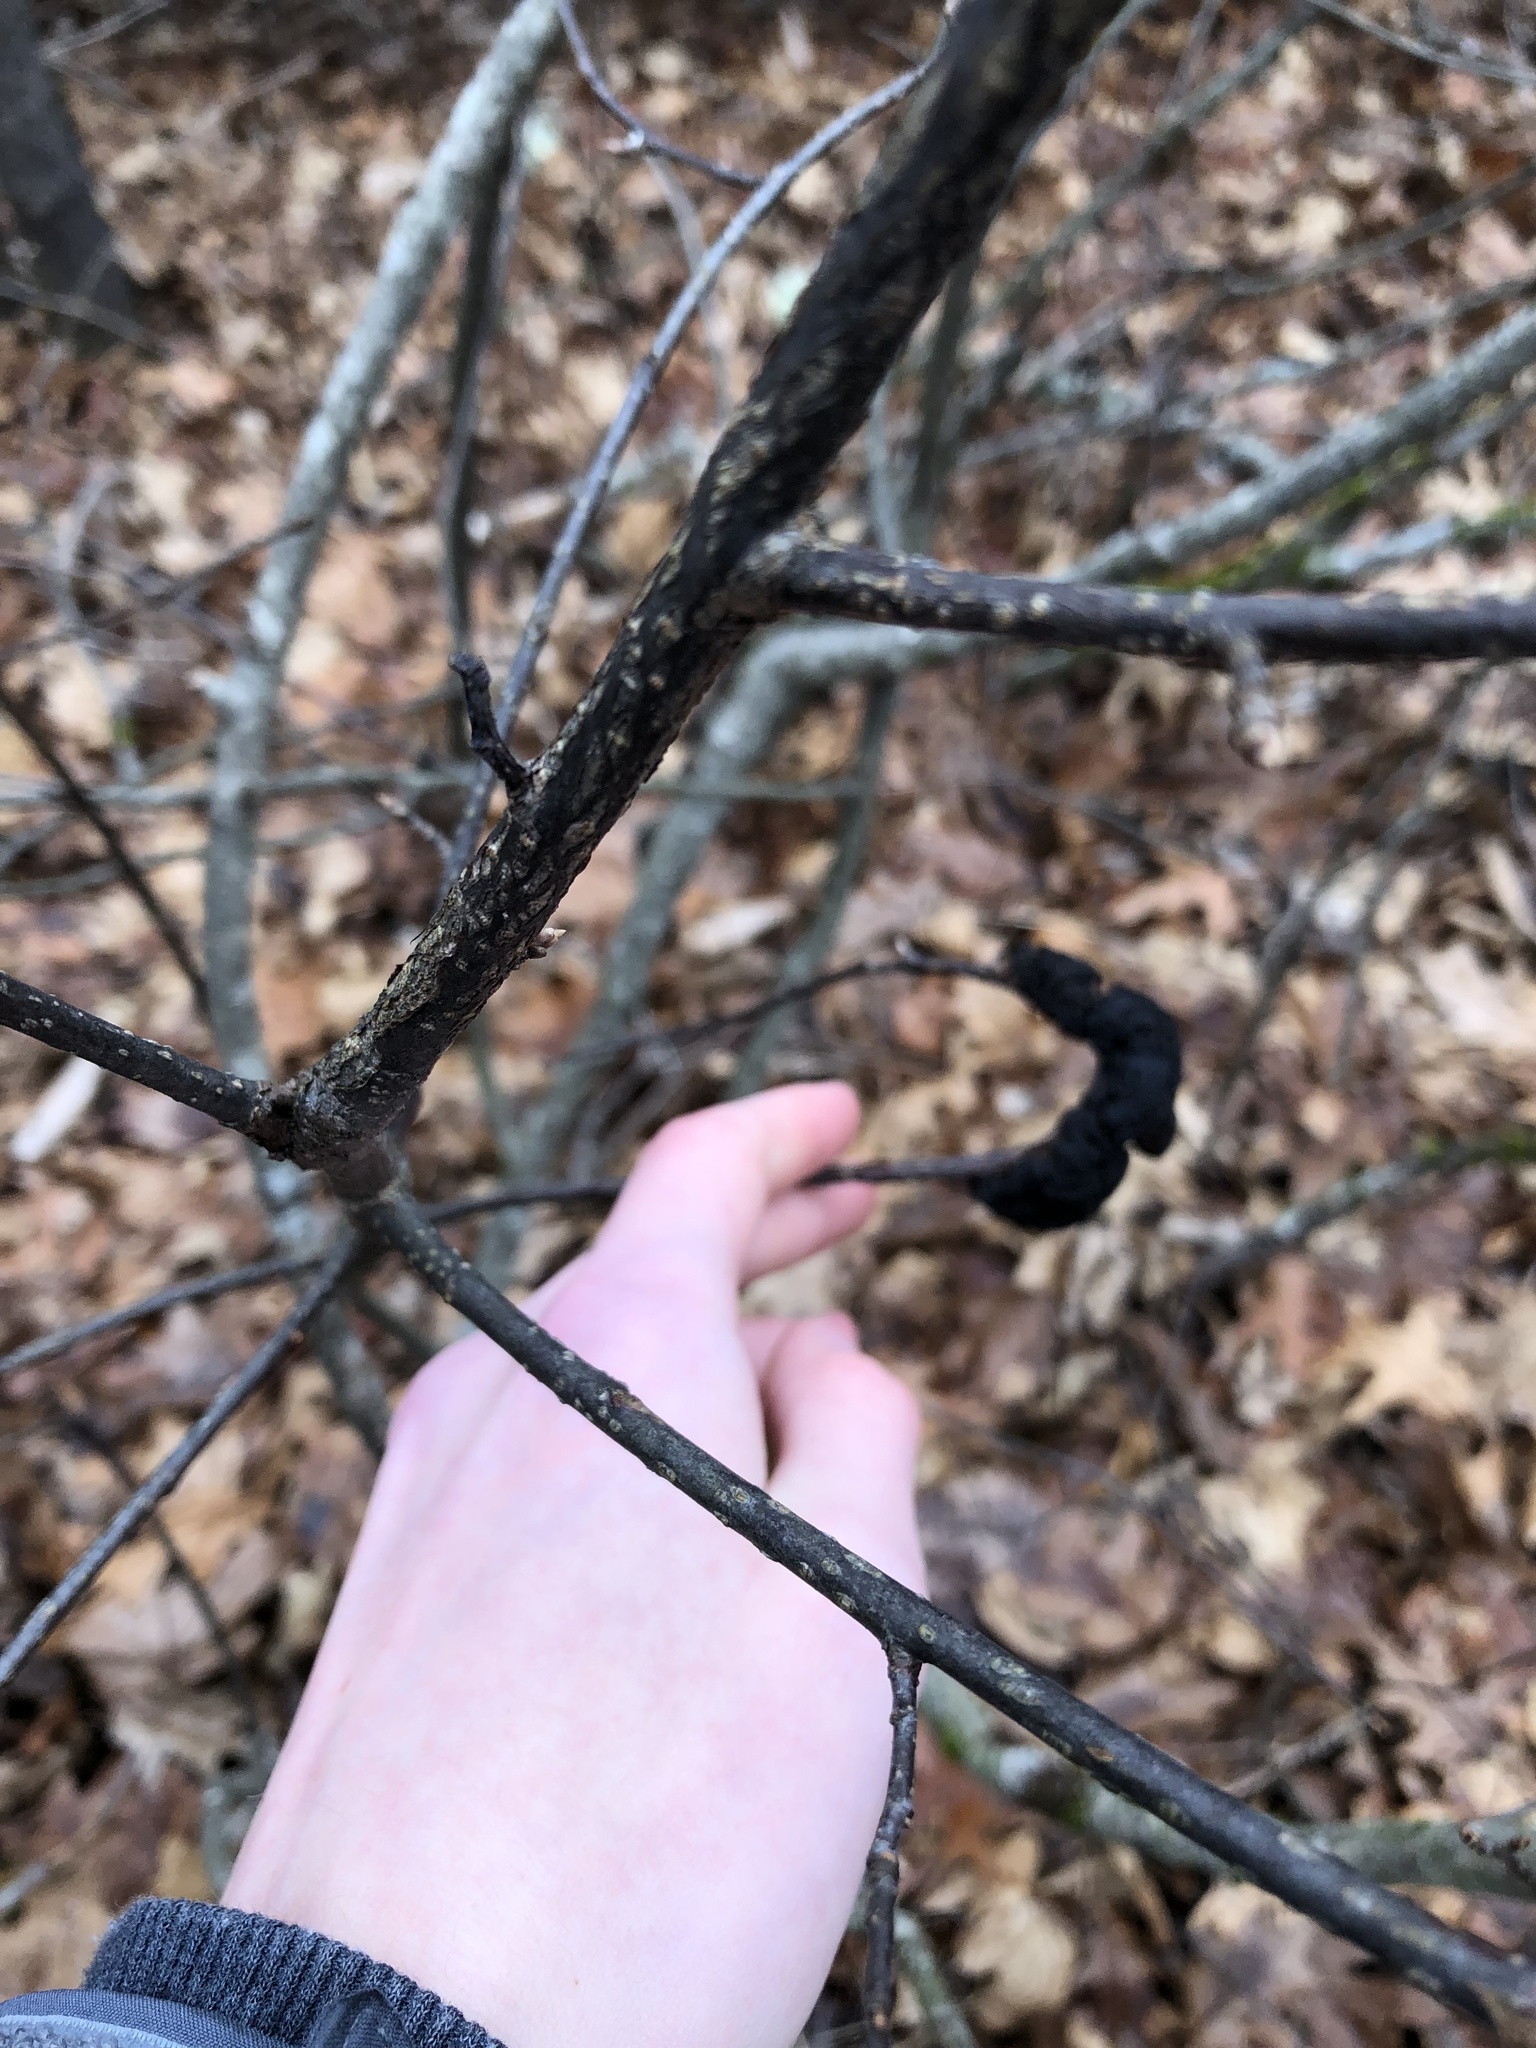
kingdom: Fungi
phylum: Ascomycota
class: Dothideomycetes
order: Venturiales
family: Venturiaceae
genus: Apiosporina
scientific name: Apiosporina morbosa
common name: Black knot
